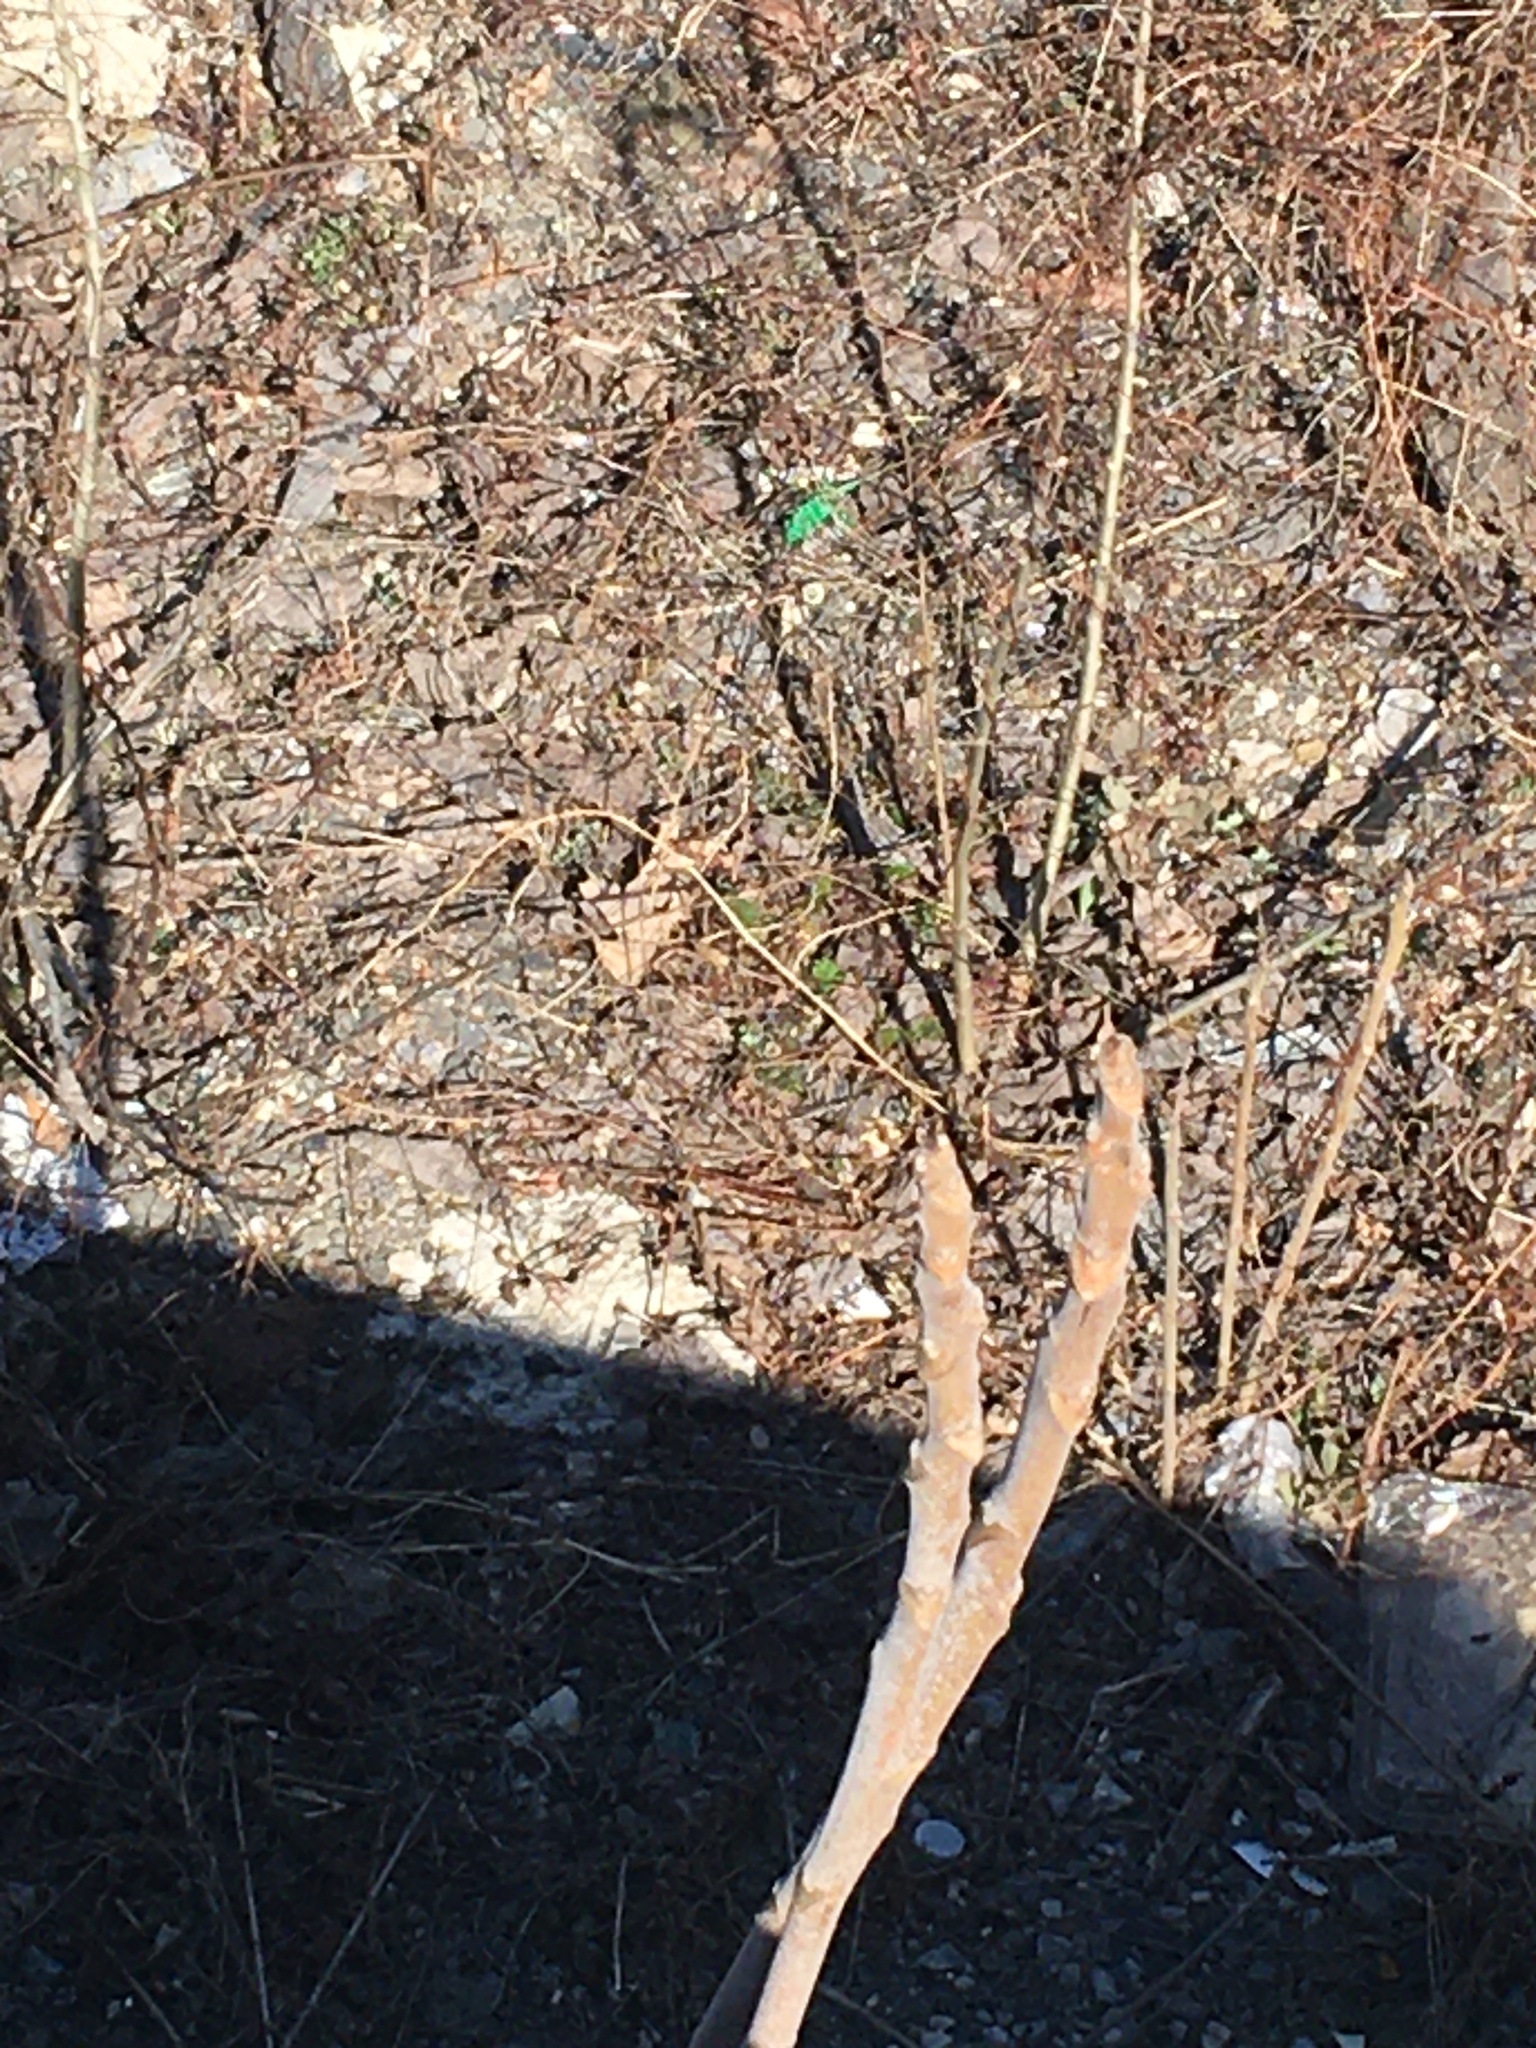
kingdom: Plantae
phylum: Tracheophyta
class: Magnoliopsida
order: Sapindales
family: Simaroubaceae
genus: Ailanthus
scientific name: Ailanthus altissima
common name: Tree-of-heaven
